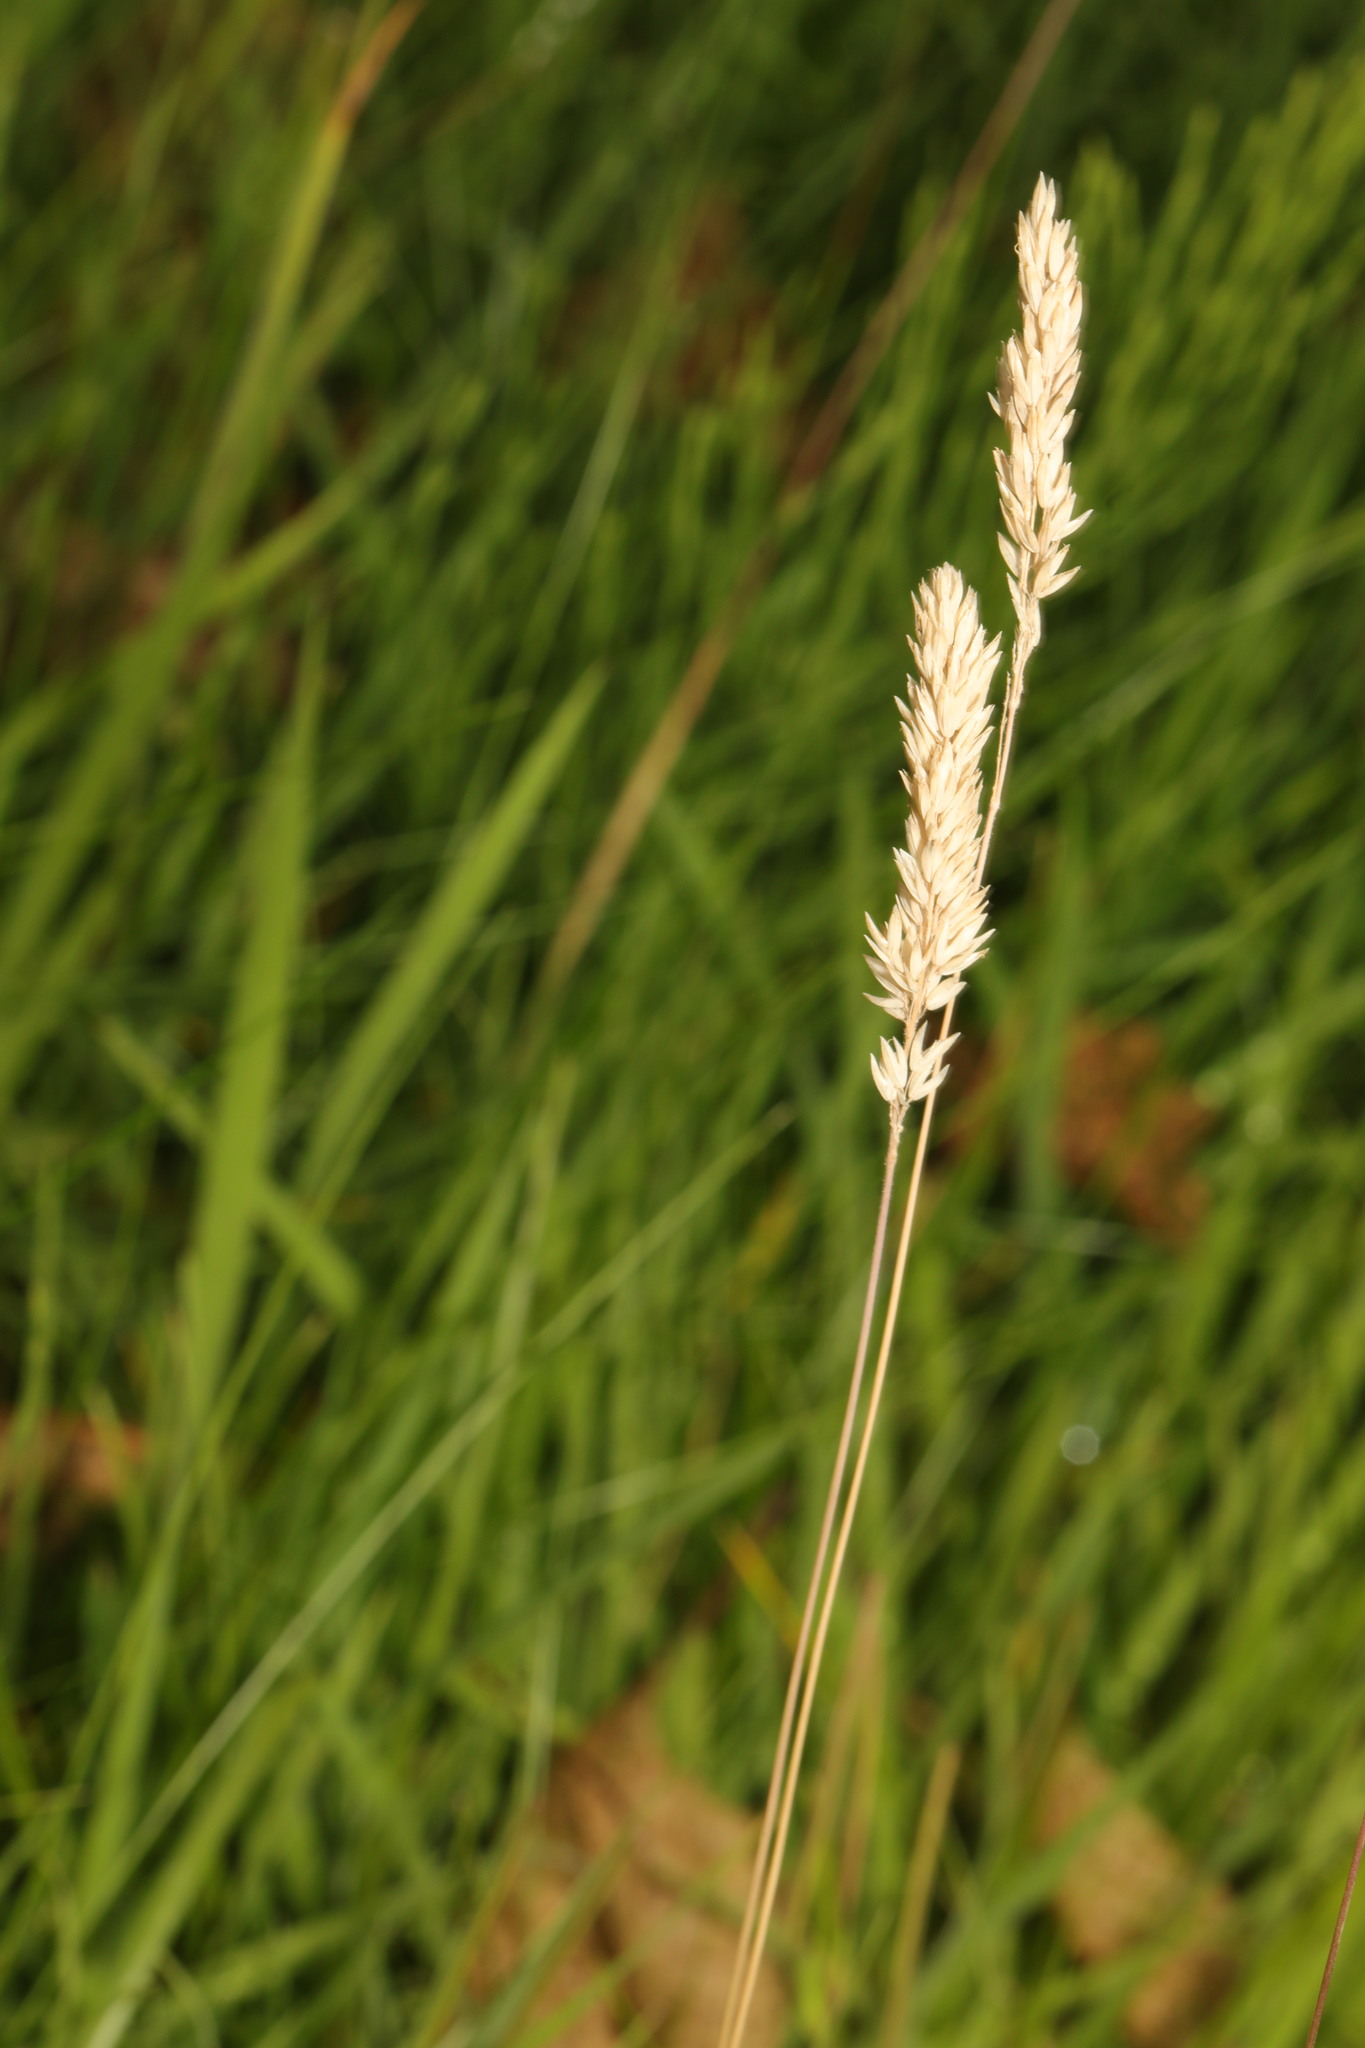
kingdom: Plantae
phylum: Tracheophyta
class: Liliopsida
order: Poales
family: Poaceae
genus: Holcus
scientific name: Holcus lanatus
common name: Yorkshire-fog
